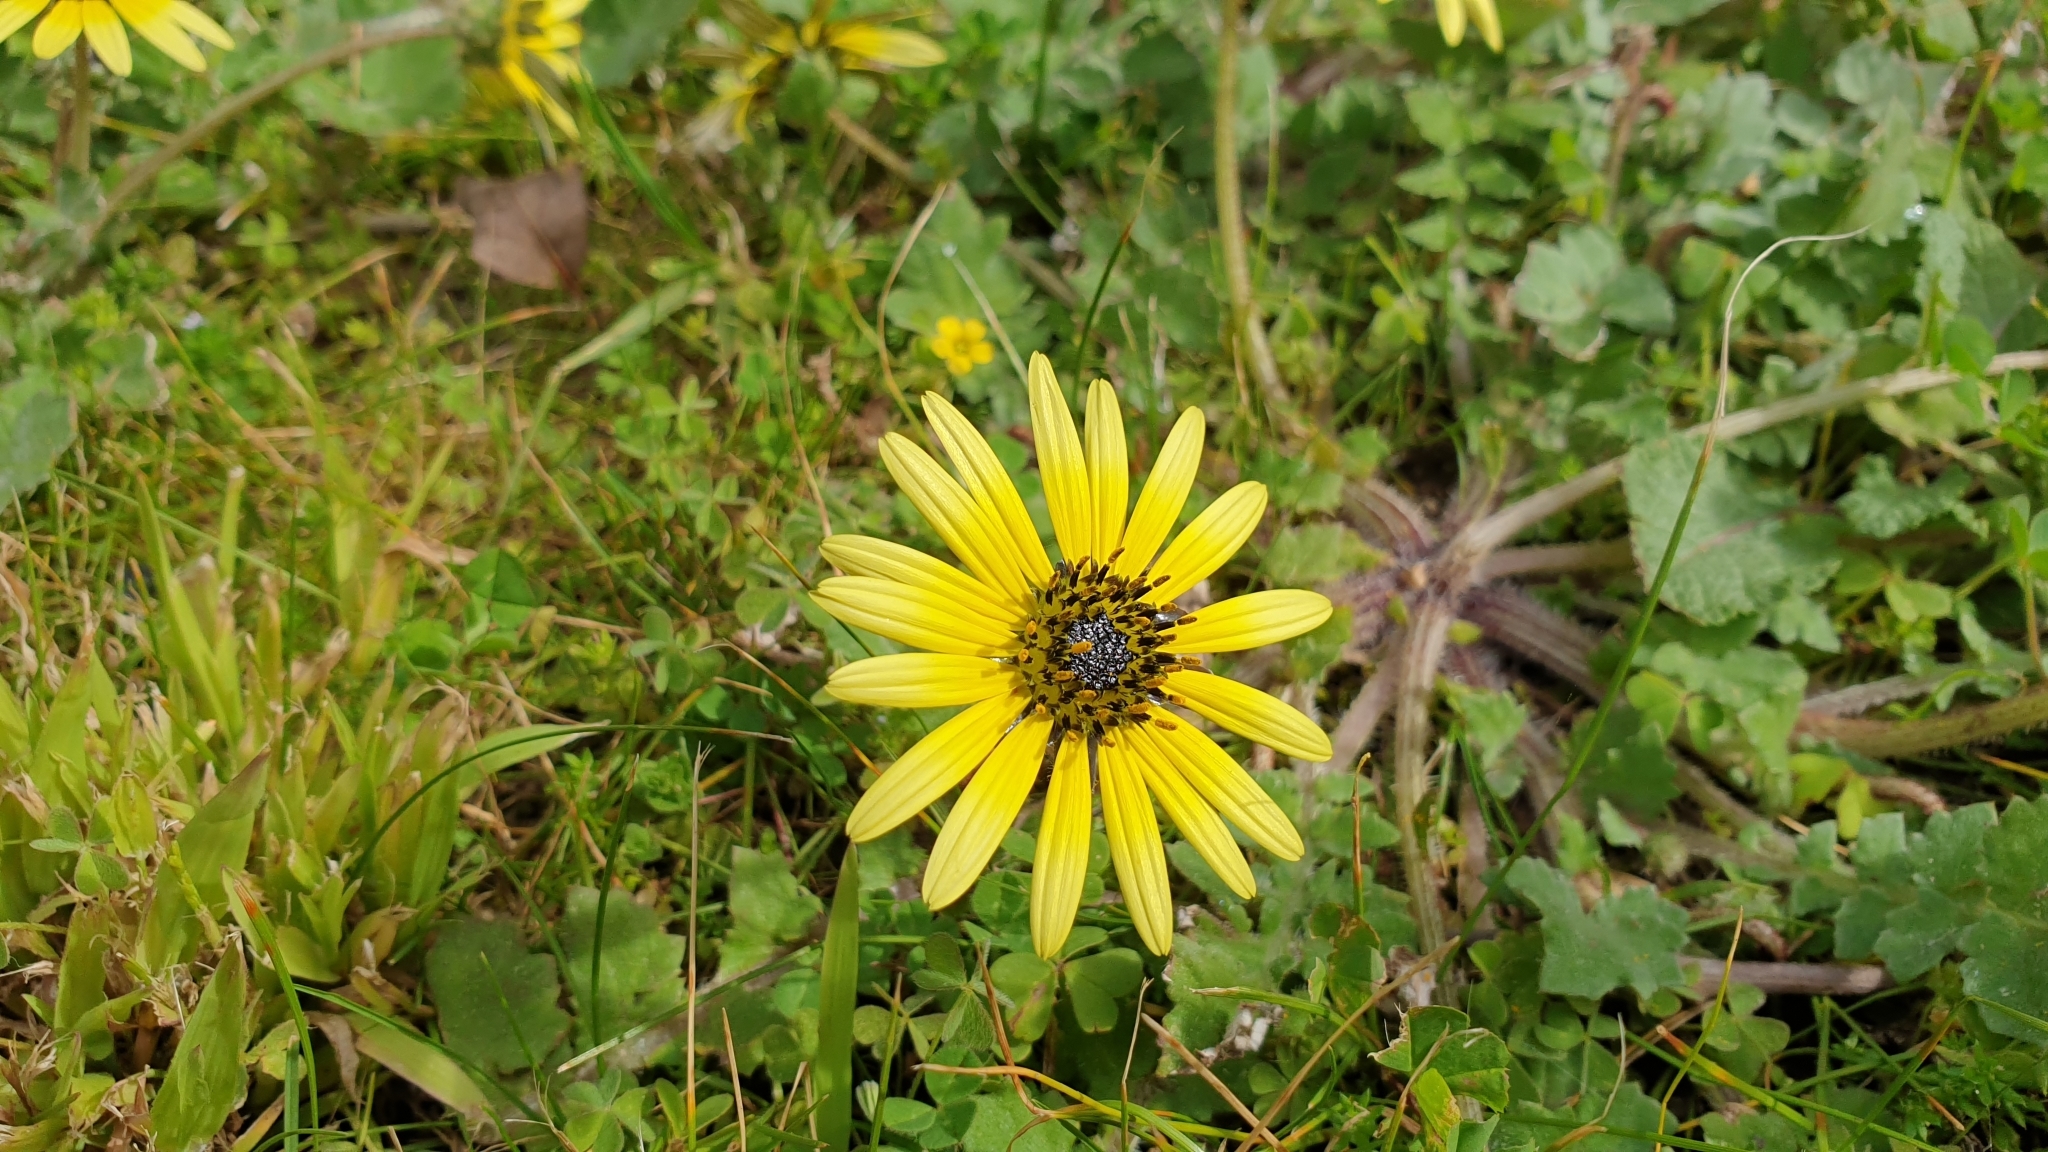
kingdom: Plantae
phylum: Tracheophyta
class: Magnoliopsida
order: Asterales
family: Asteraceae
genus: Arctotheca
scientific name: Arctotheca calendula
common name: Capeweed
